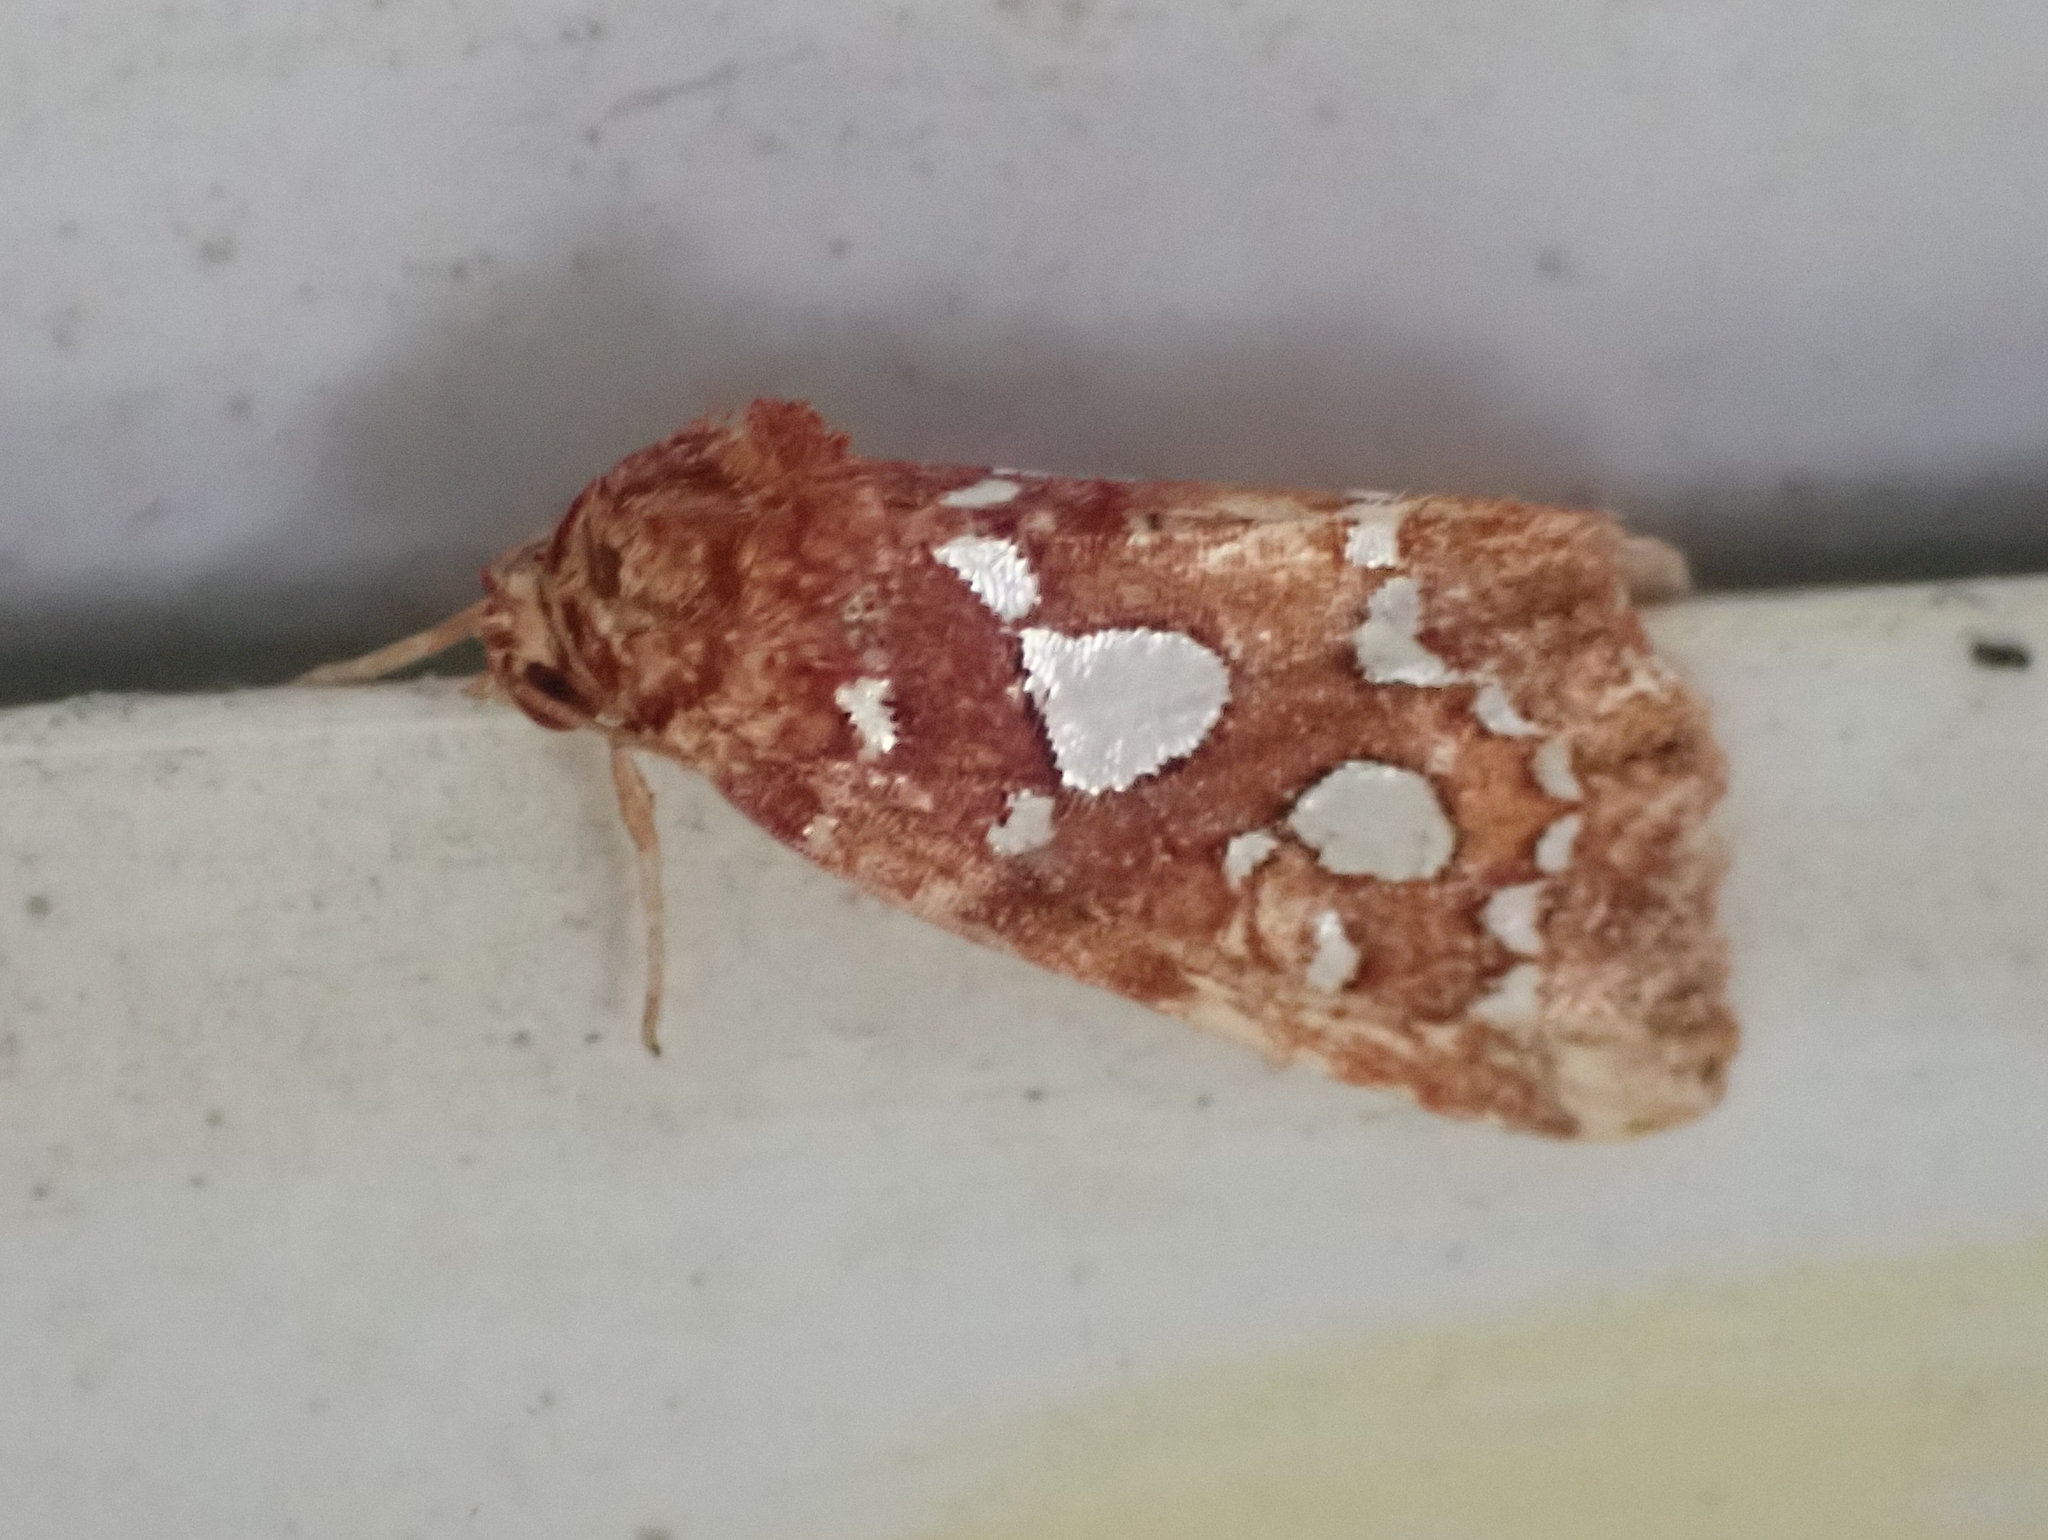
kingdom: Animalia
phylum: Arthropoda
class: Insecta
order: Lepidoptera
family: Noctuidae
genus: Callopistria
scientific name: Callopistria cordata
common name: Silver-spotted fern moth
